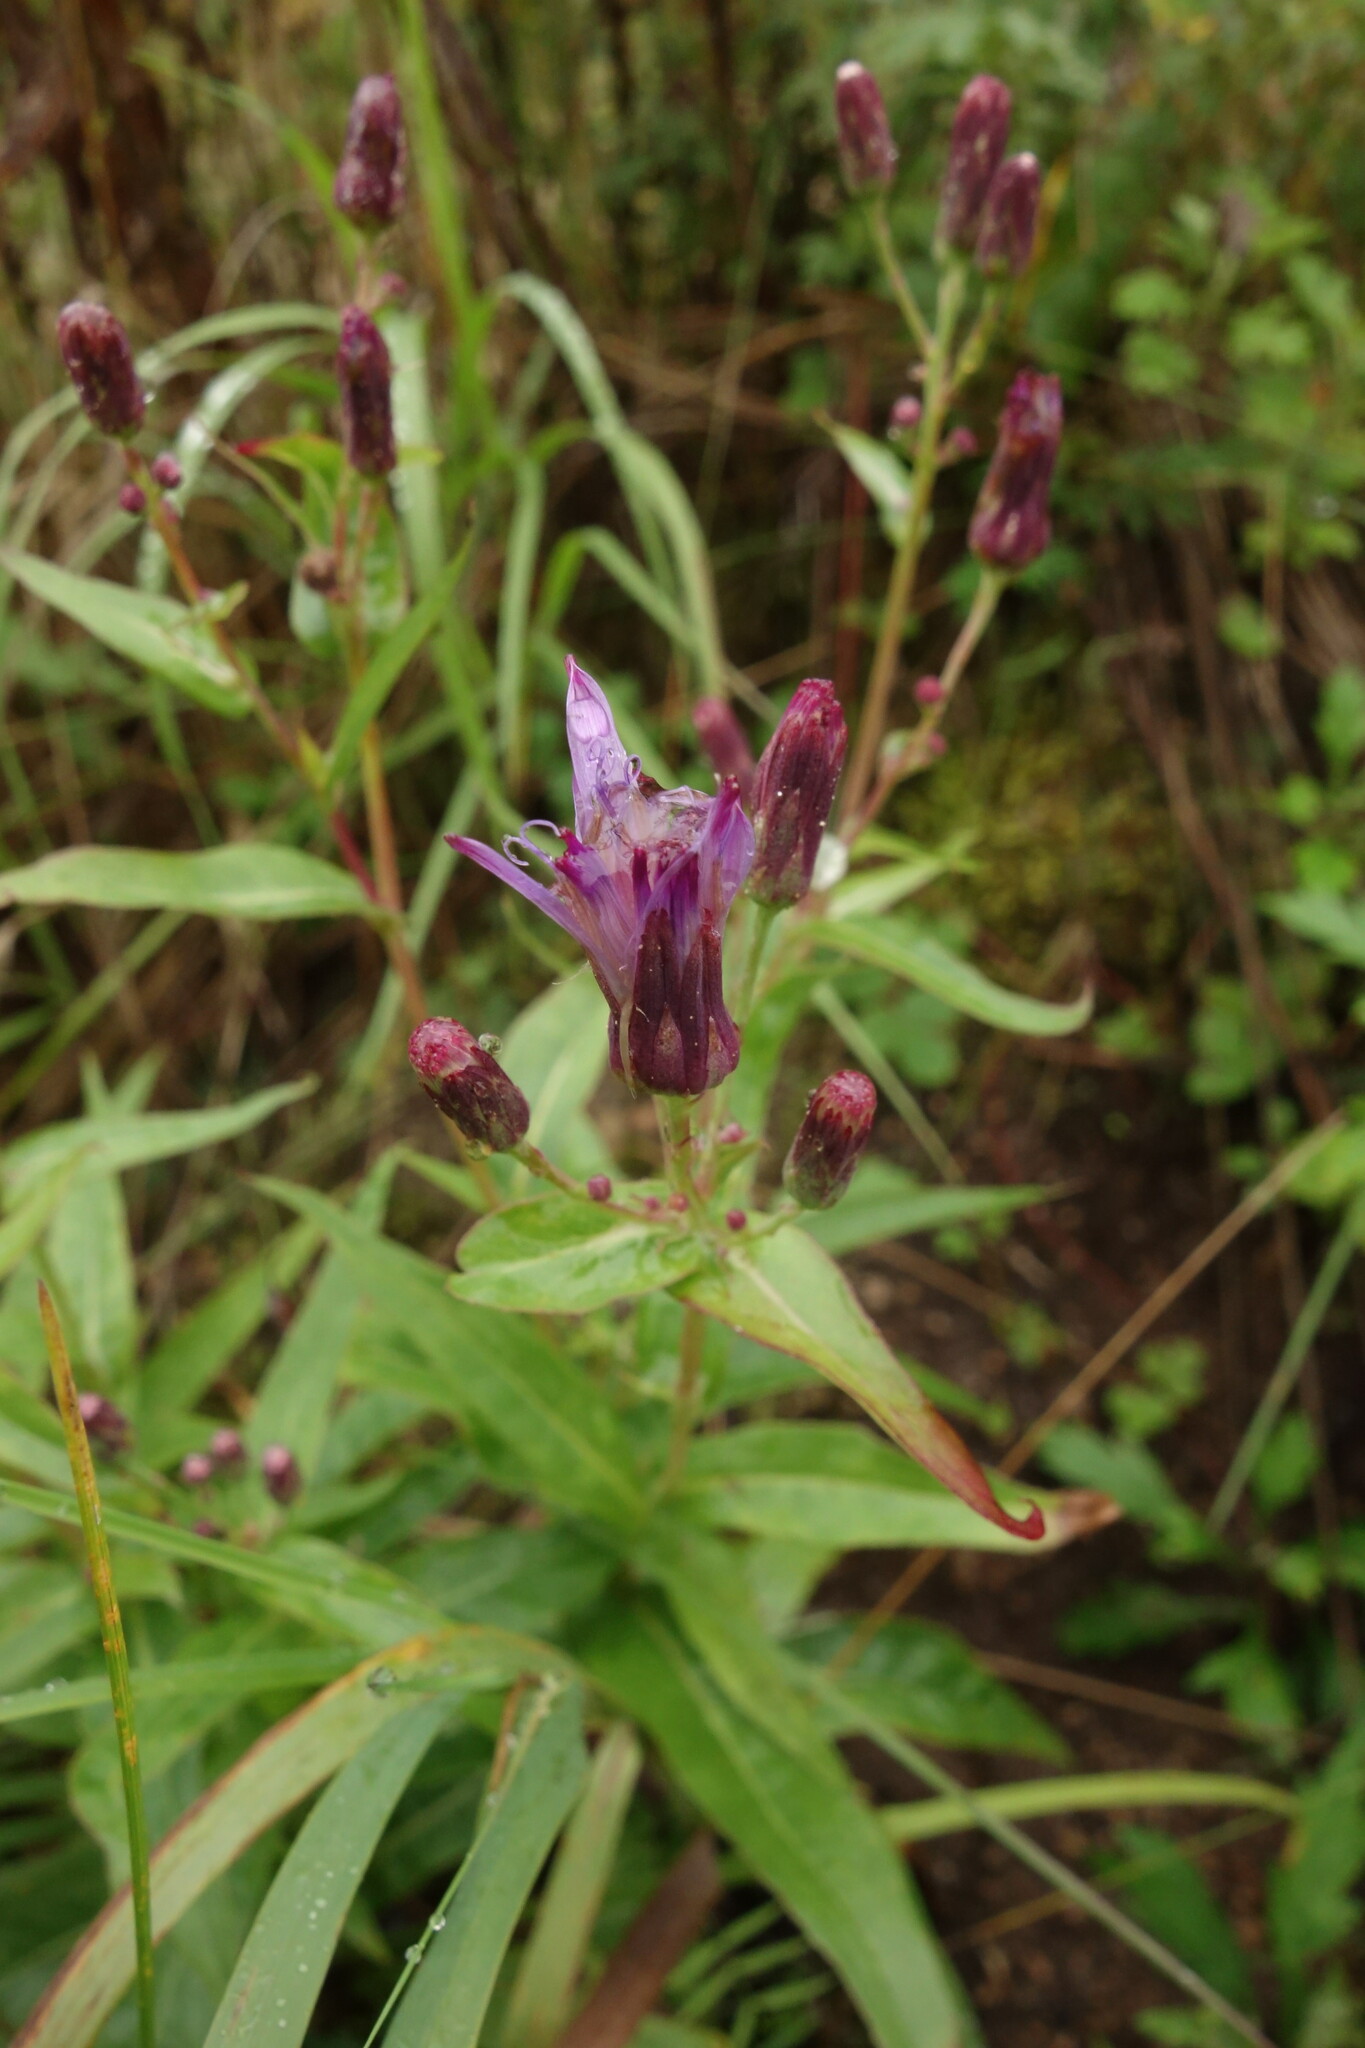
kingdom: Plantae
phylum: Tracheophyta
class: Magnoliopsida
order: Asterales
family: Asteraceae
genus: Lactuca
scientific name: Lactuca sibirica
